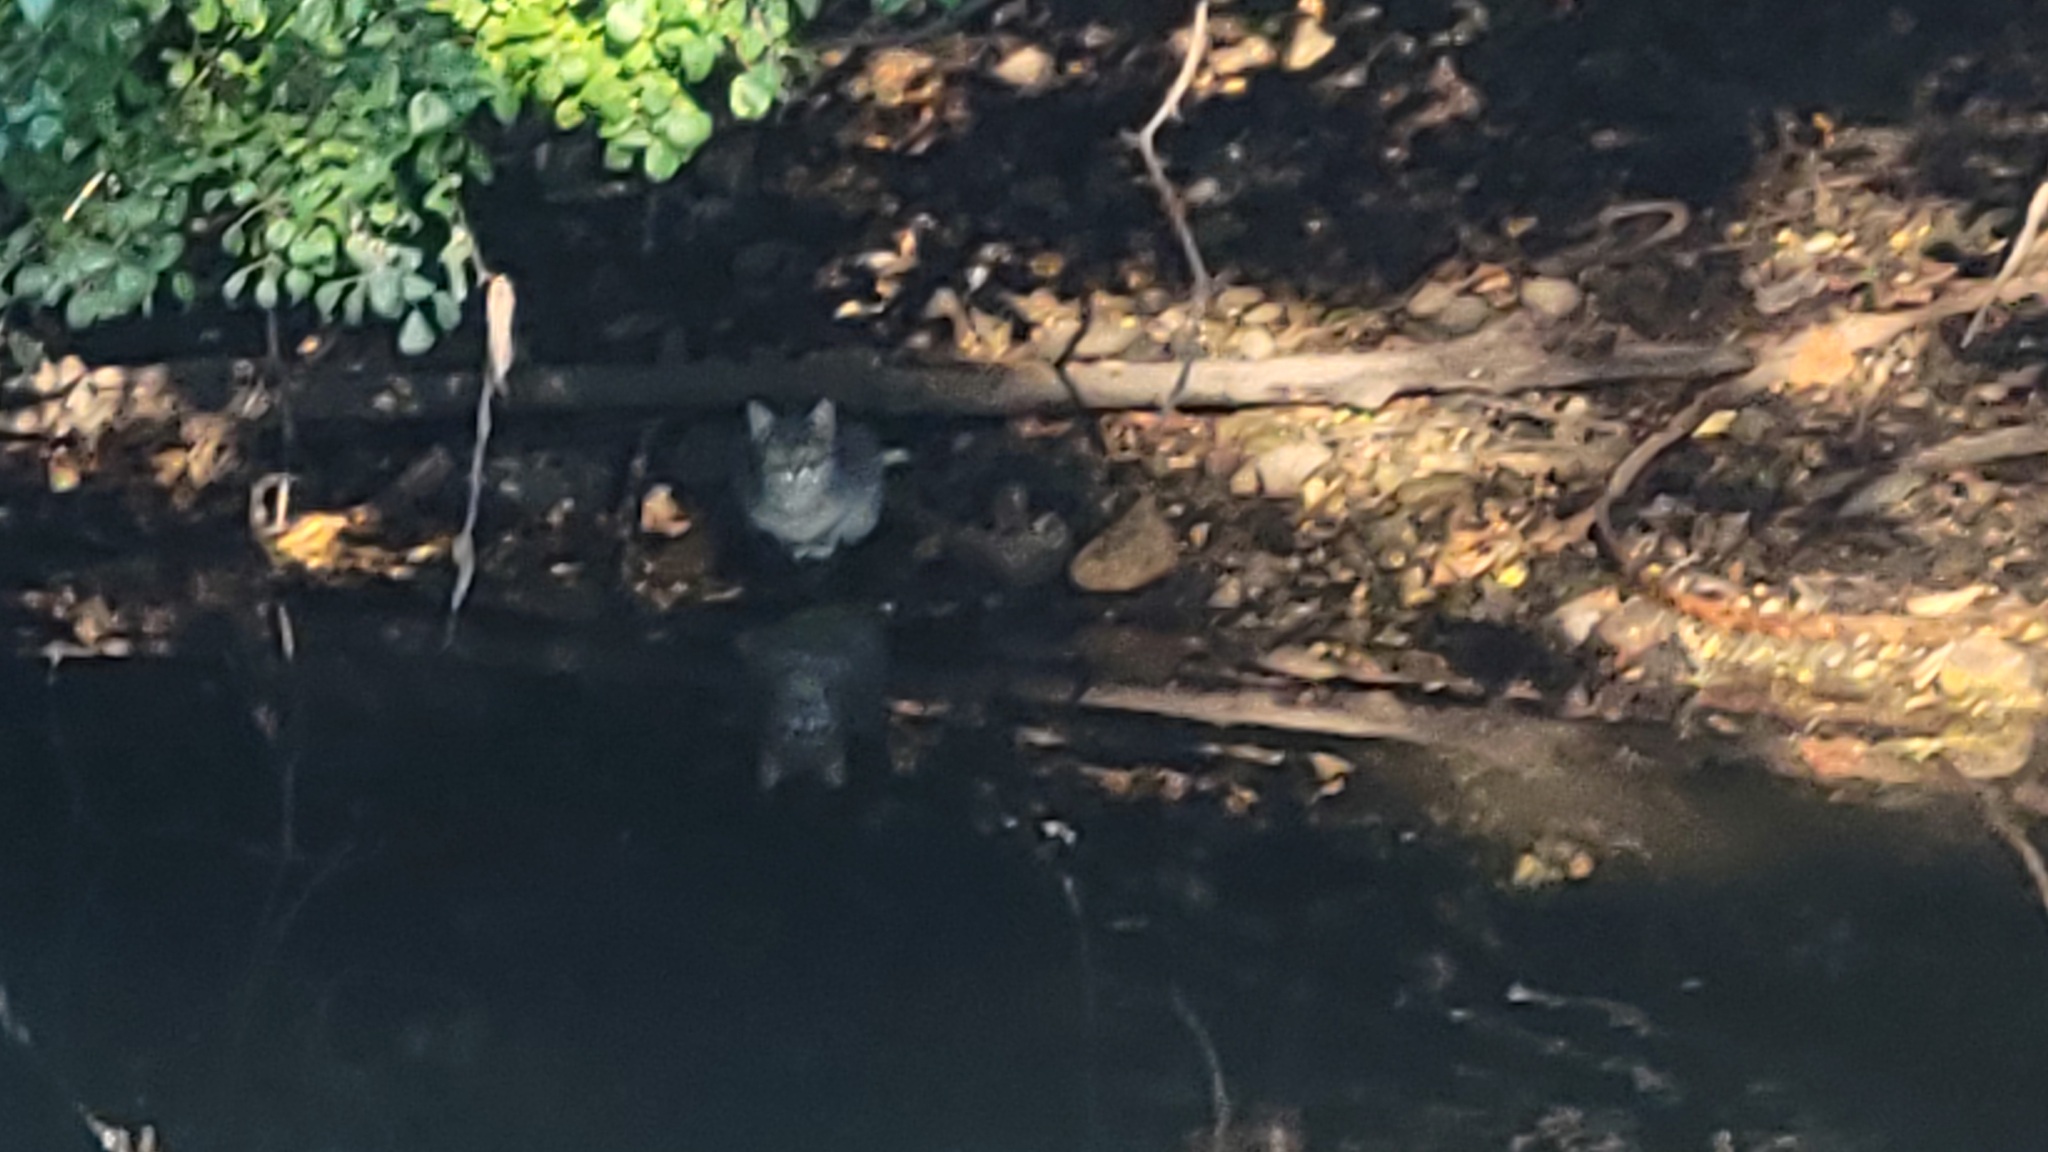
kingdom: Animalia
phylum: Chordata
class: Mammalia
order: Carnivora
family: Felidae
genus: Felis
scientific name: Felis catus
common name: Domestic cat
